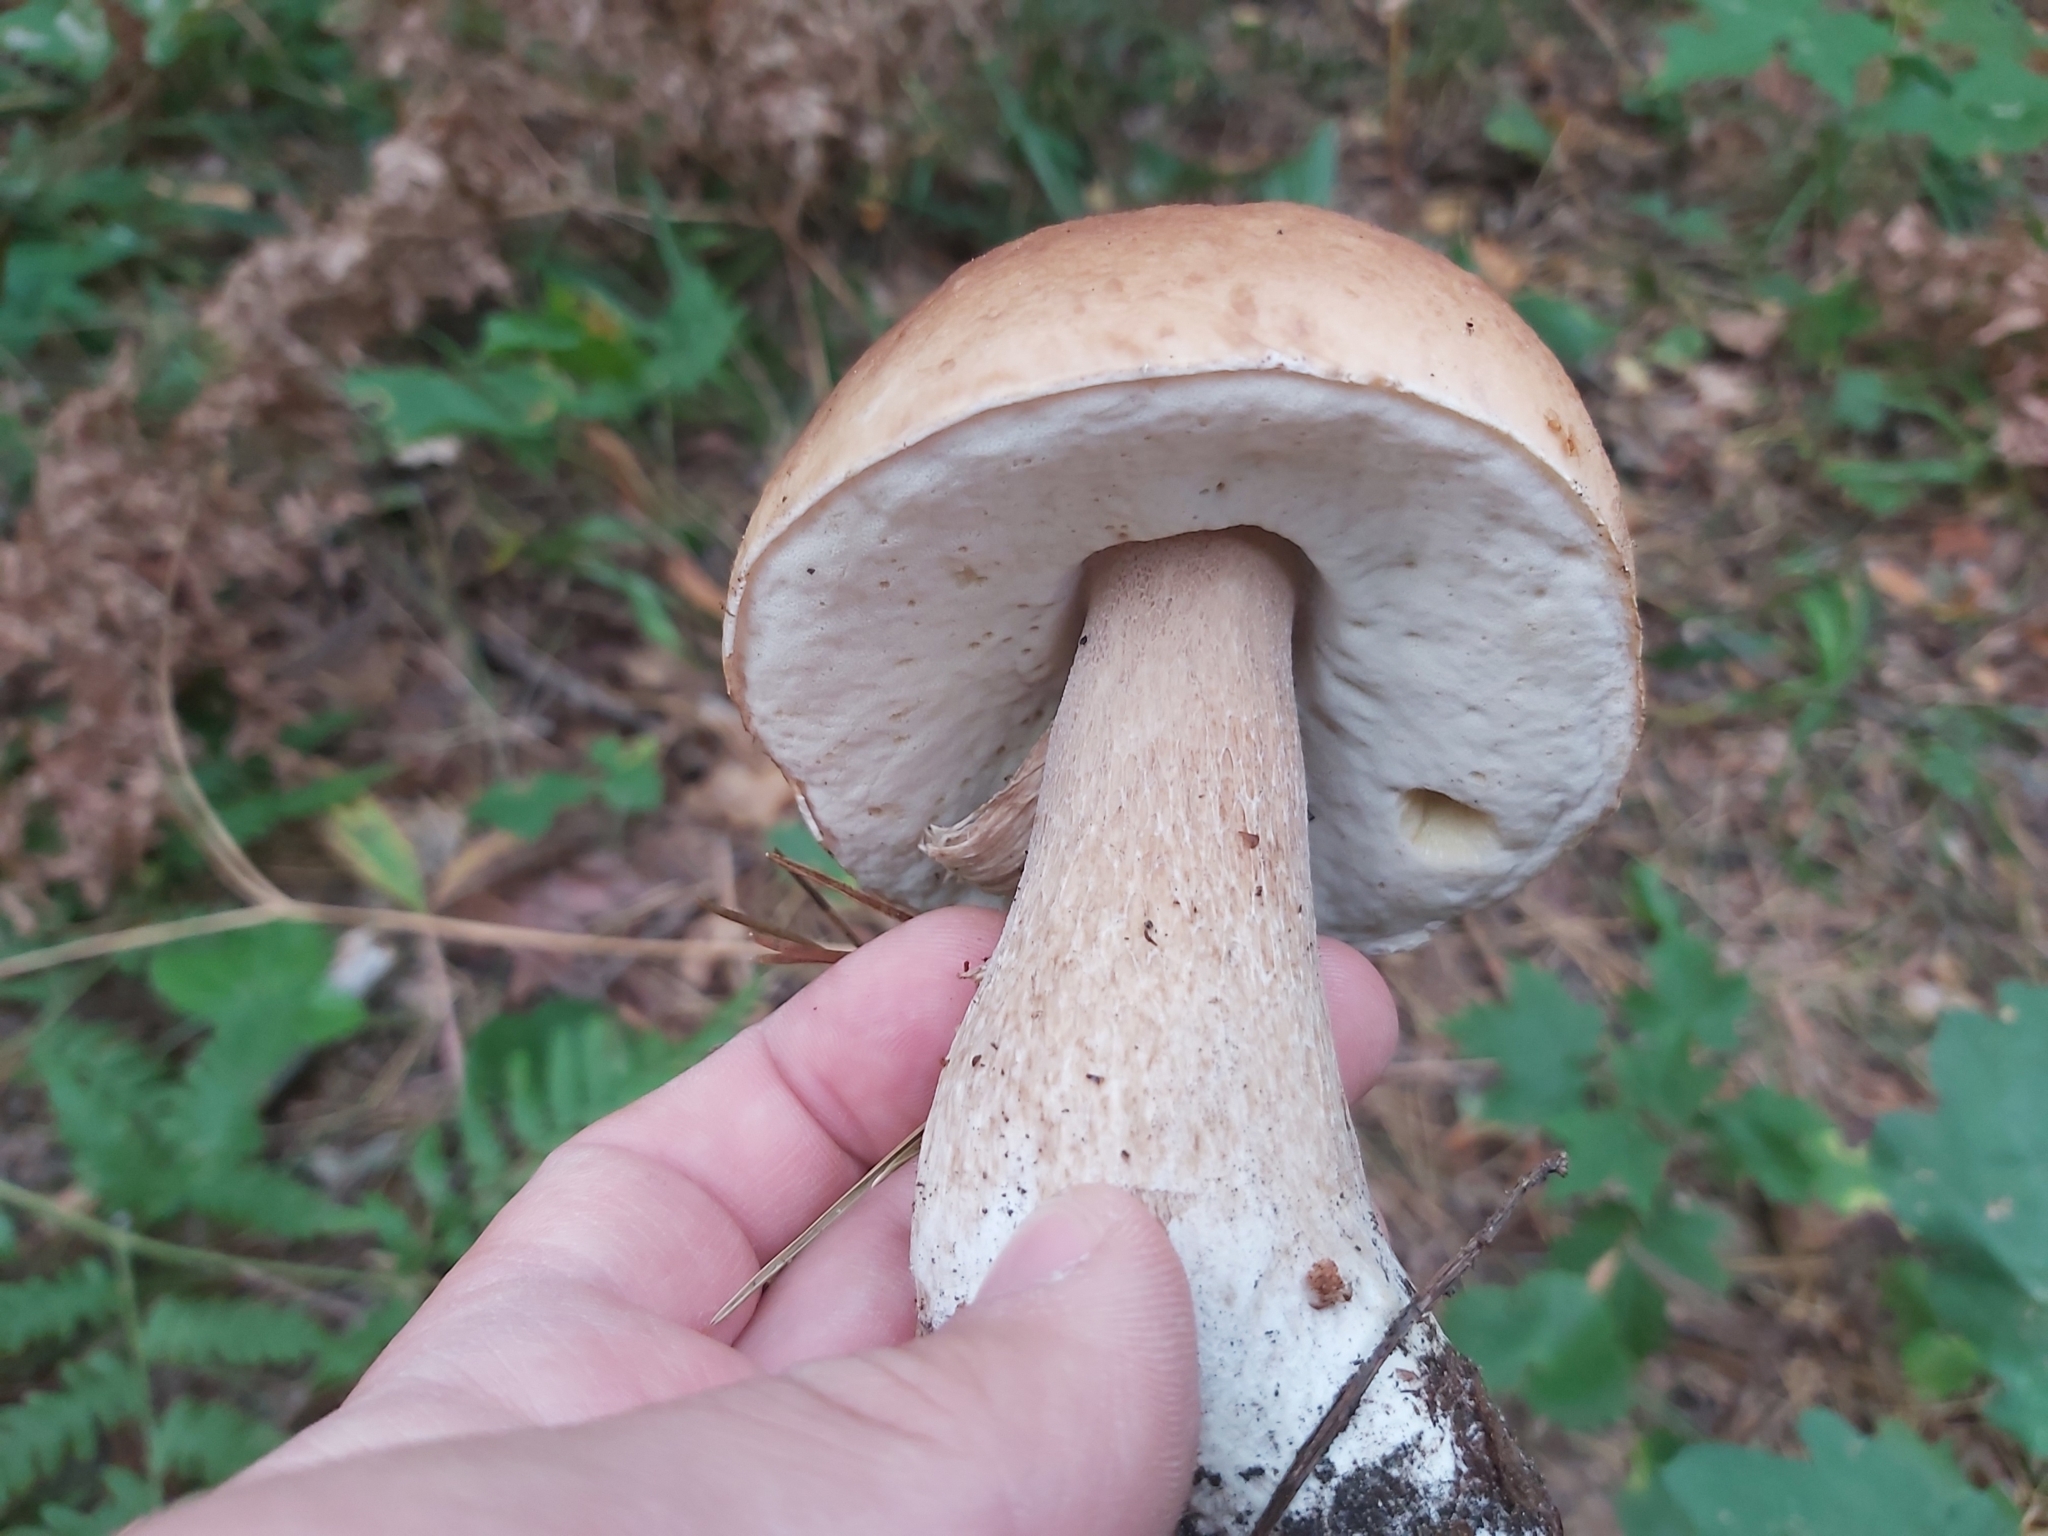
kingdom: Fungi
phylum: Basidiomycota
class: Agaricomycetes
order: Boletales
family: Boletaceae
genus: Boletus
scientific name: Boletus edulis
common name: Cep
